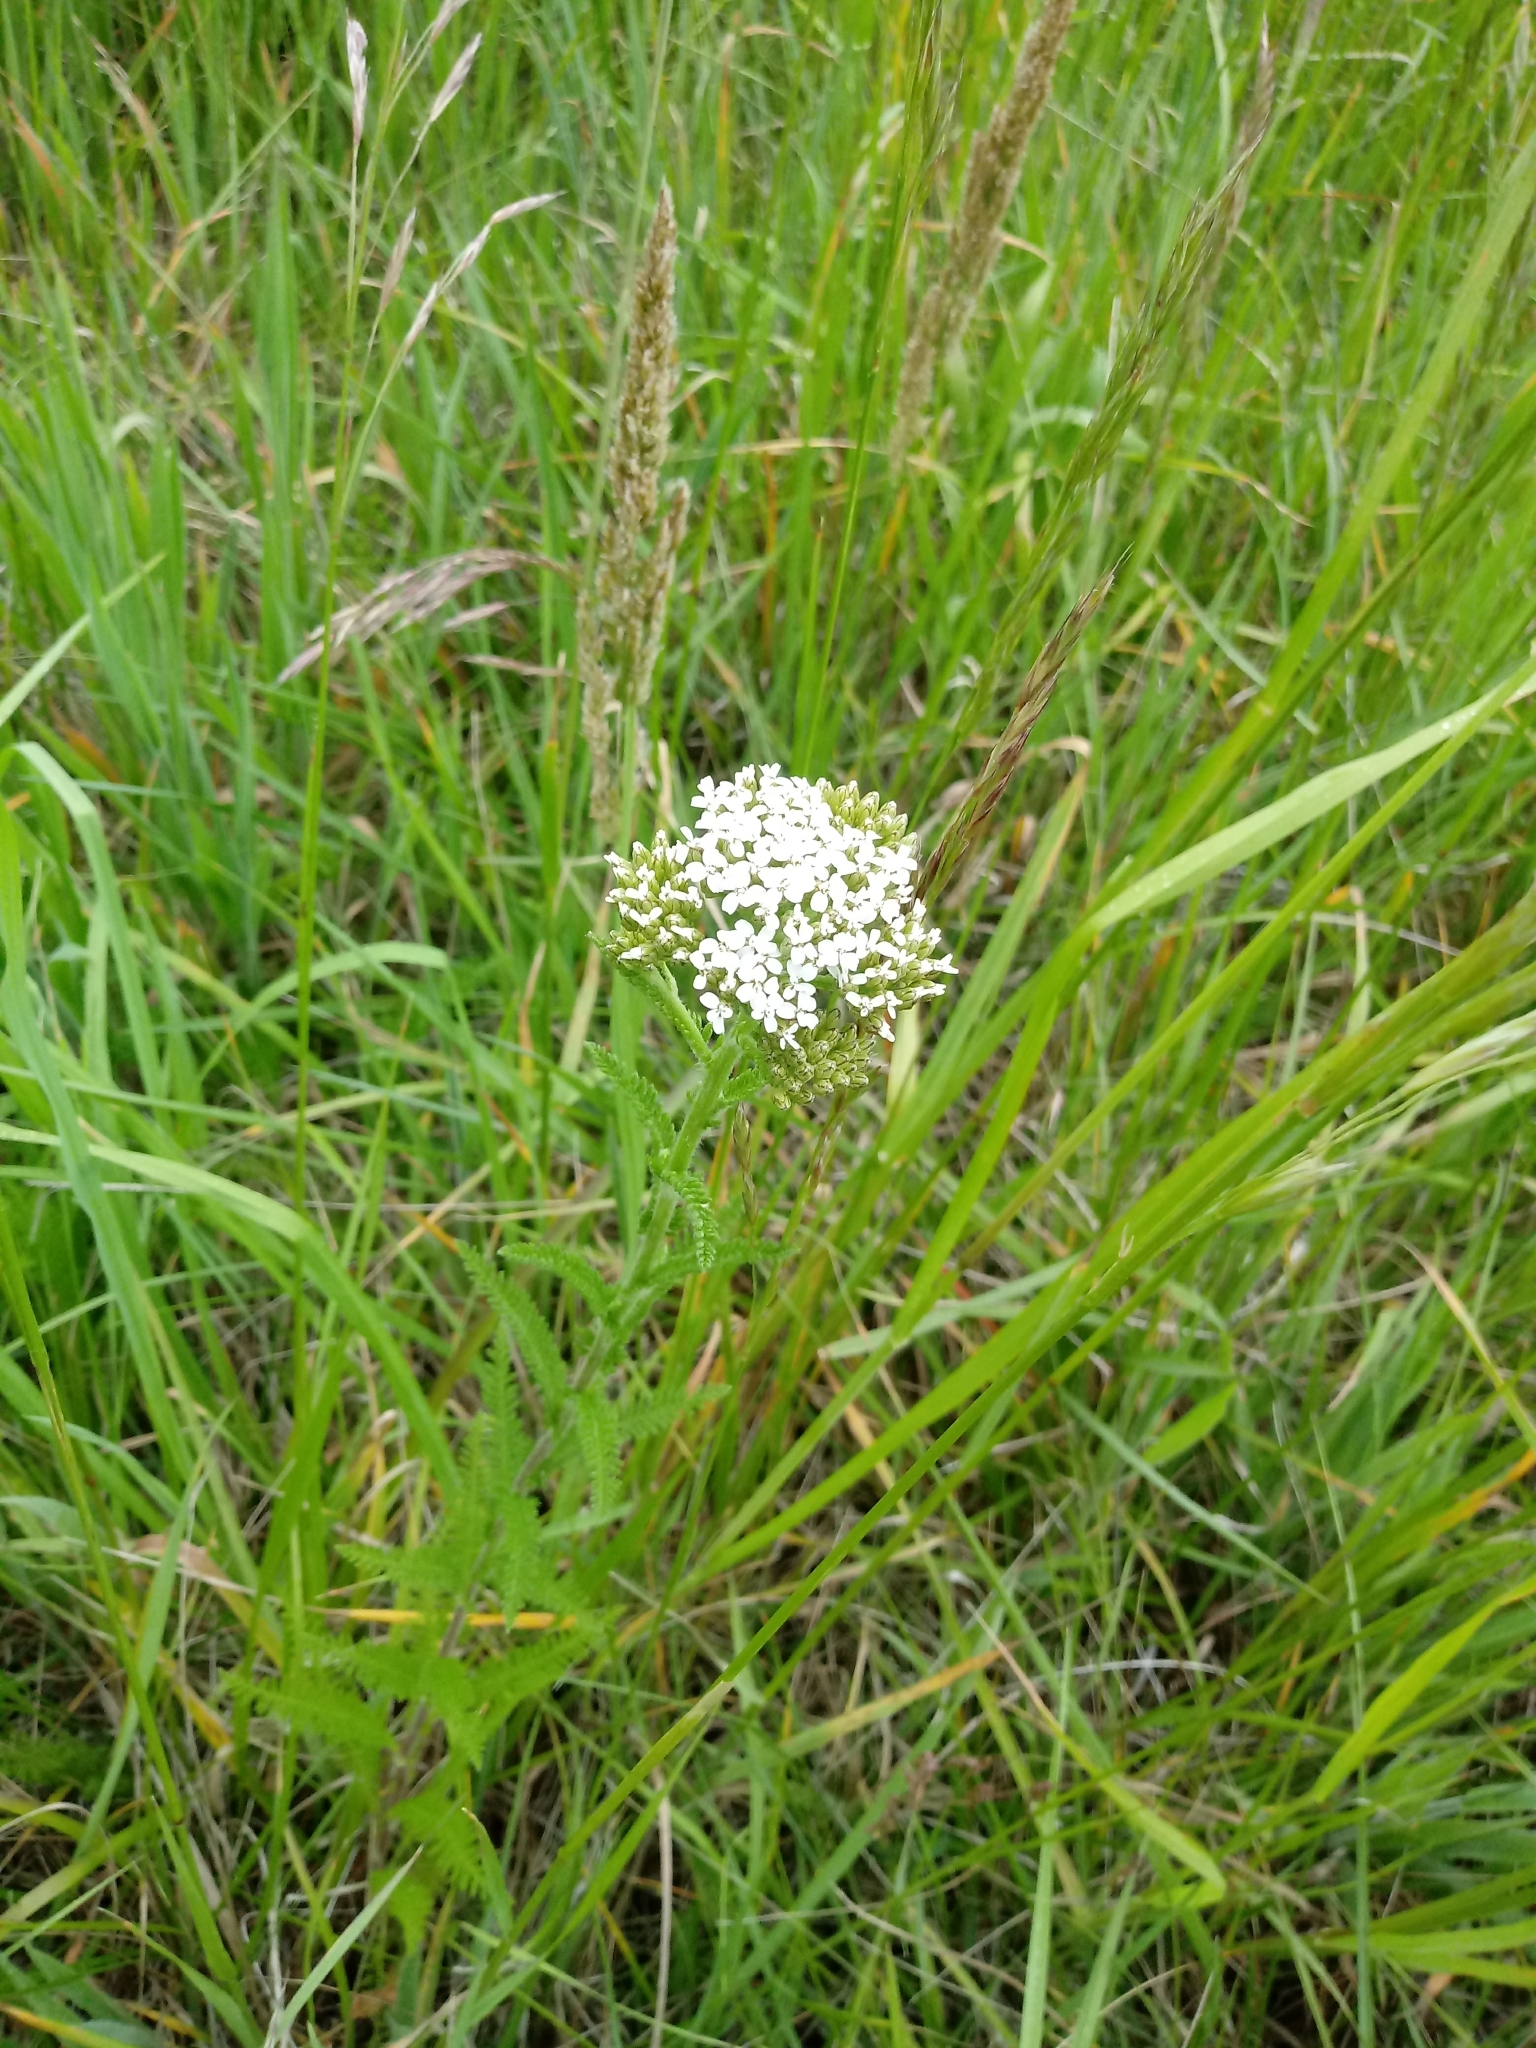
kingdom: Plantae
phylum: Tracheophyta
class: Magnoliopsida
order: Asterales
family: Asteraceae
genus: Achillea
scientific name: Achillea millefolium
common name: Yarrow
